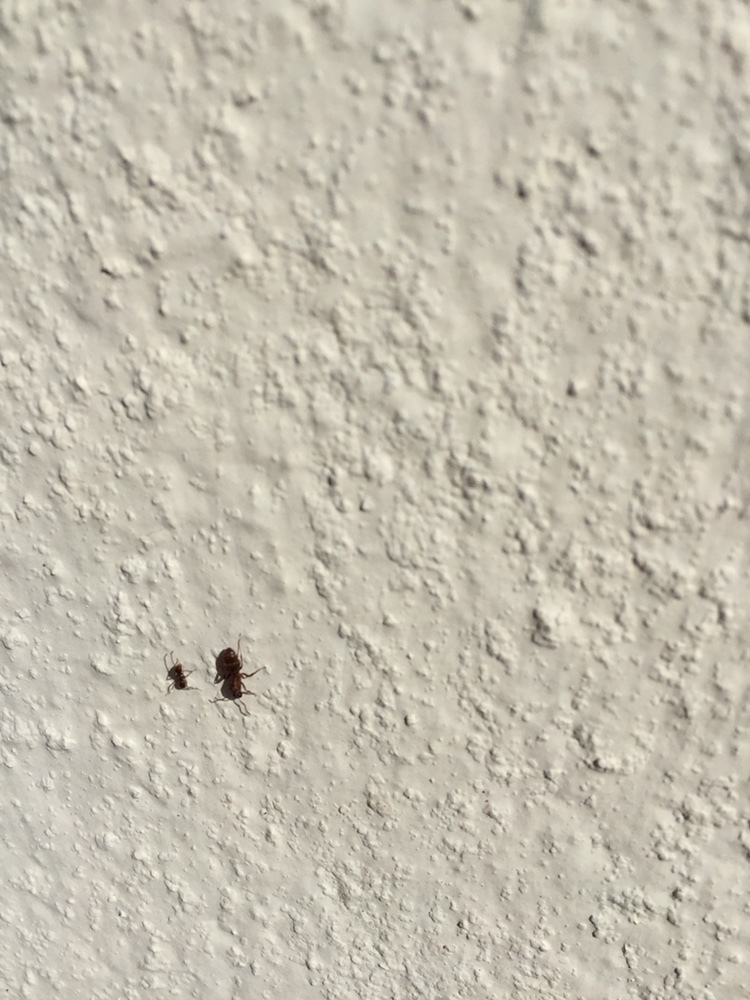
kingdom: Animalia
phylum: Arthropoda
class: Insecta
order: Hymenoptera
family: Formicidae
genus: Linepithema
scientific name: Linepithema humile
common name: Argentine ant
